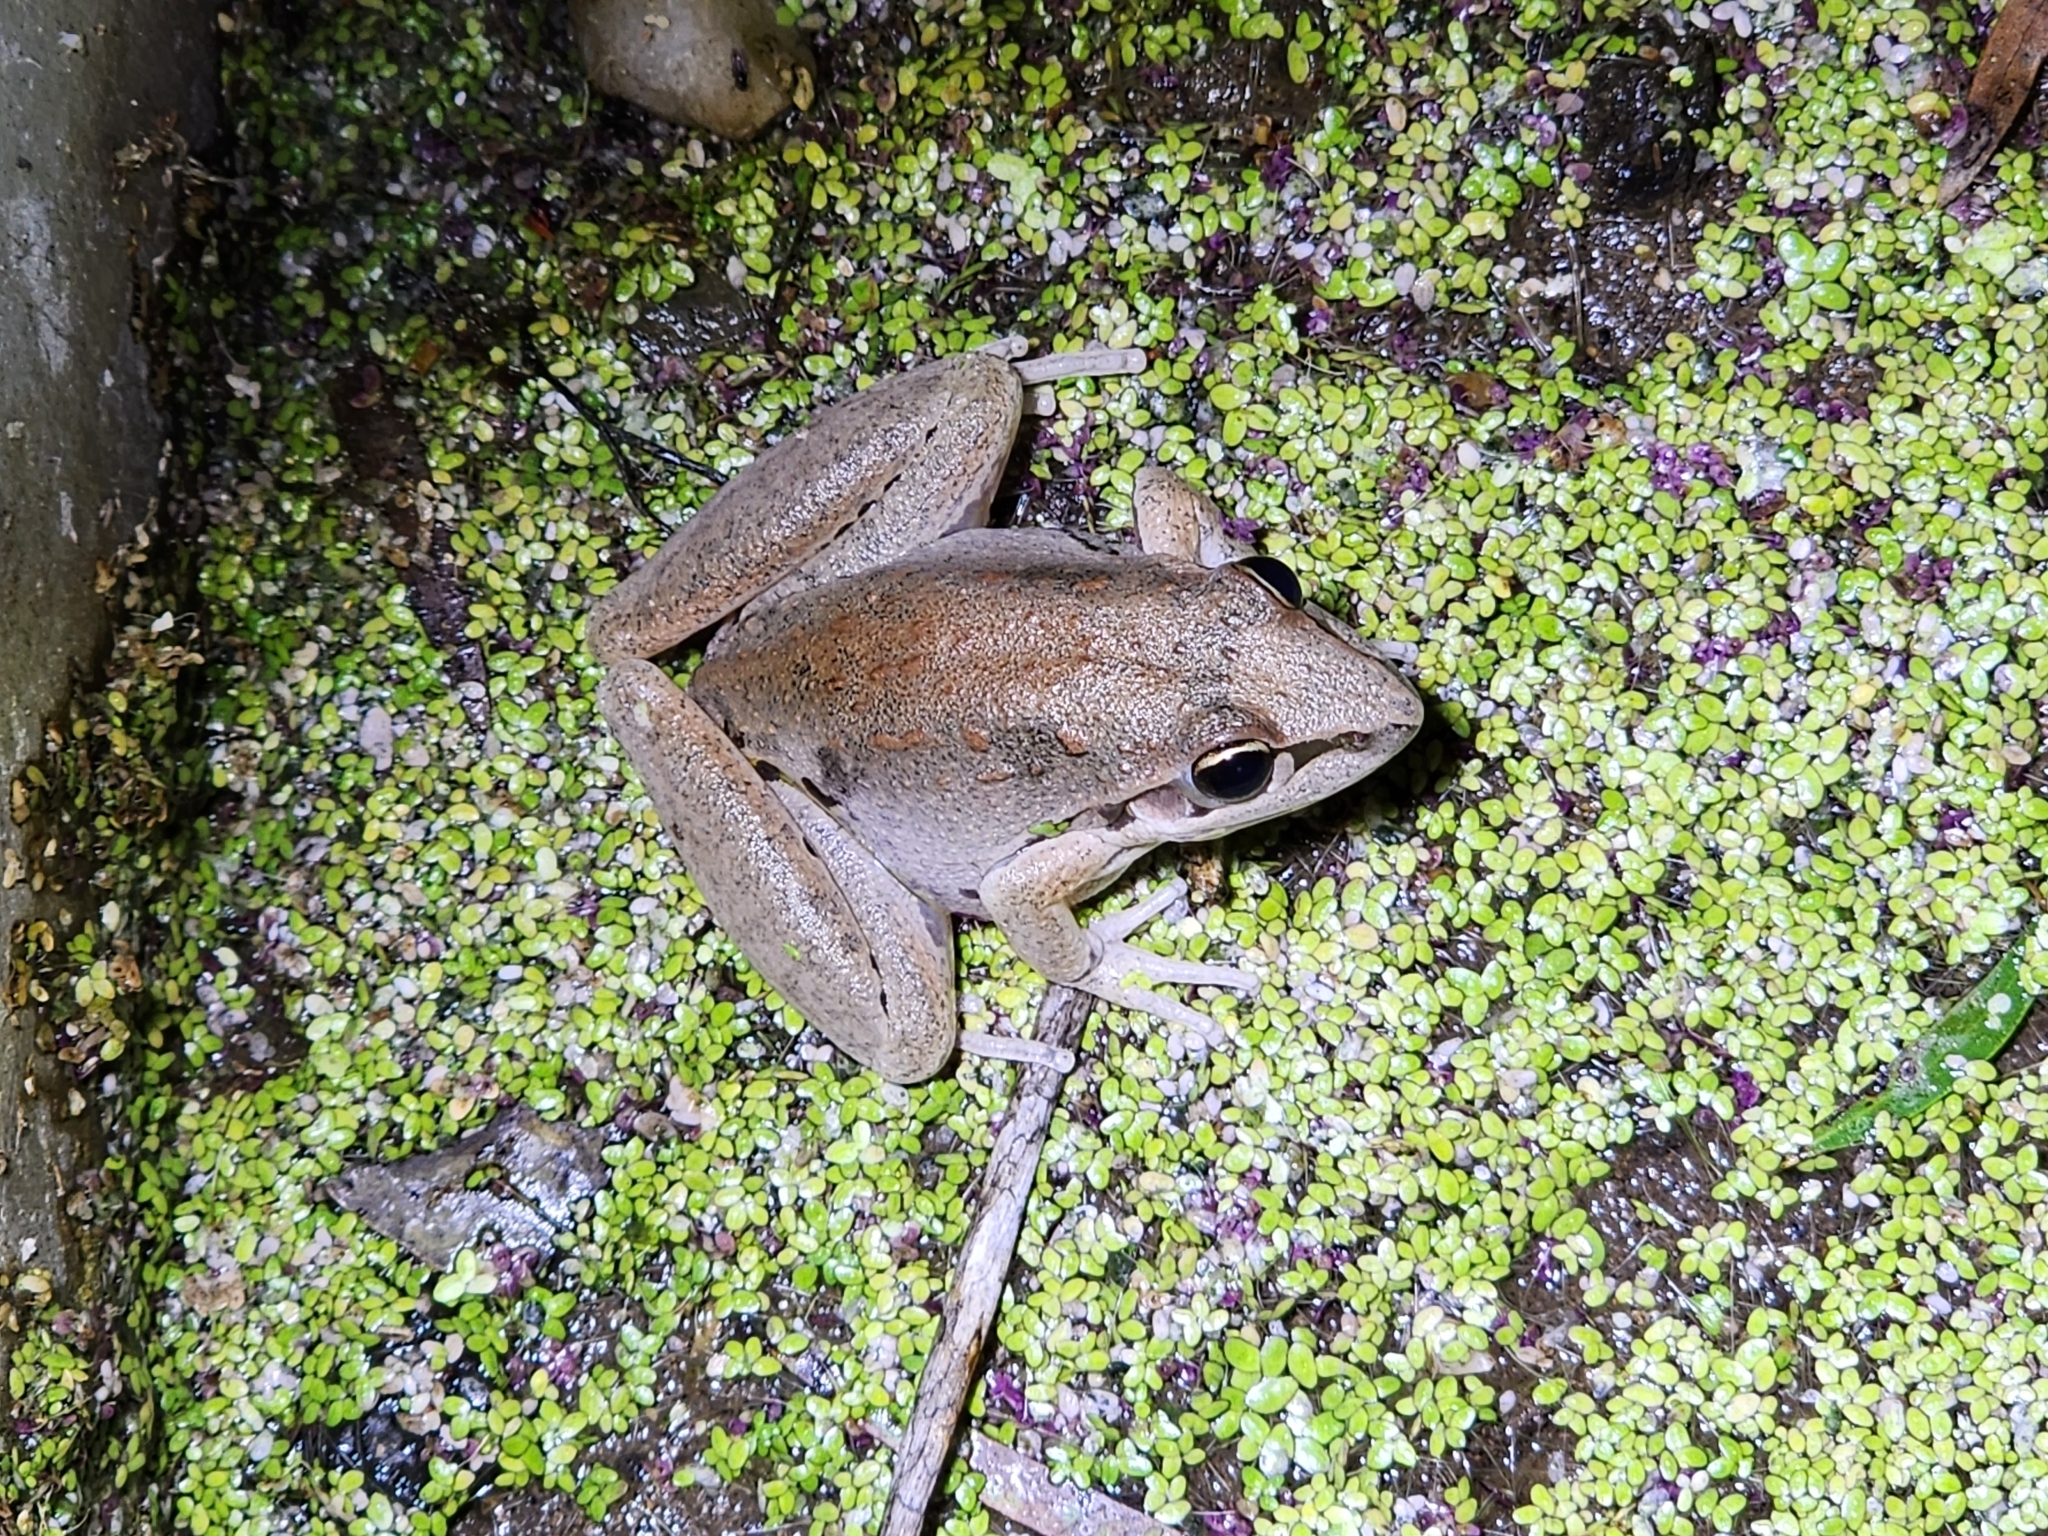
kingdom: Animalia
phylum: Chordata
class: Amphibia
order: Anura
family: Pelodryadidae
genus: Litoria
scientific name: Litoria latopalmata
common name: Broad-palmed rocket frog
